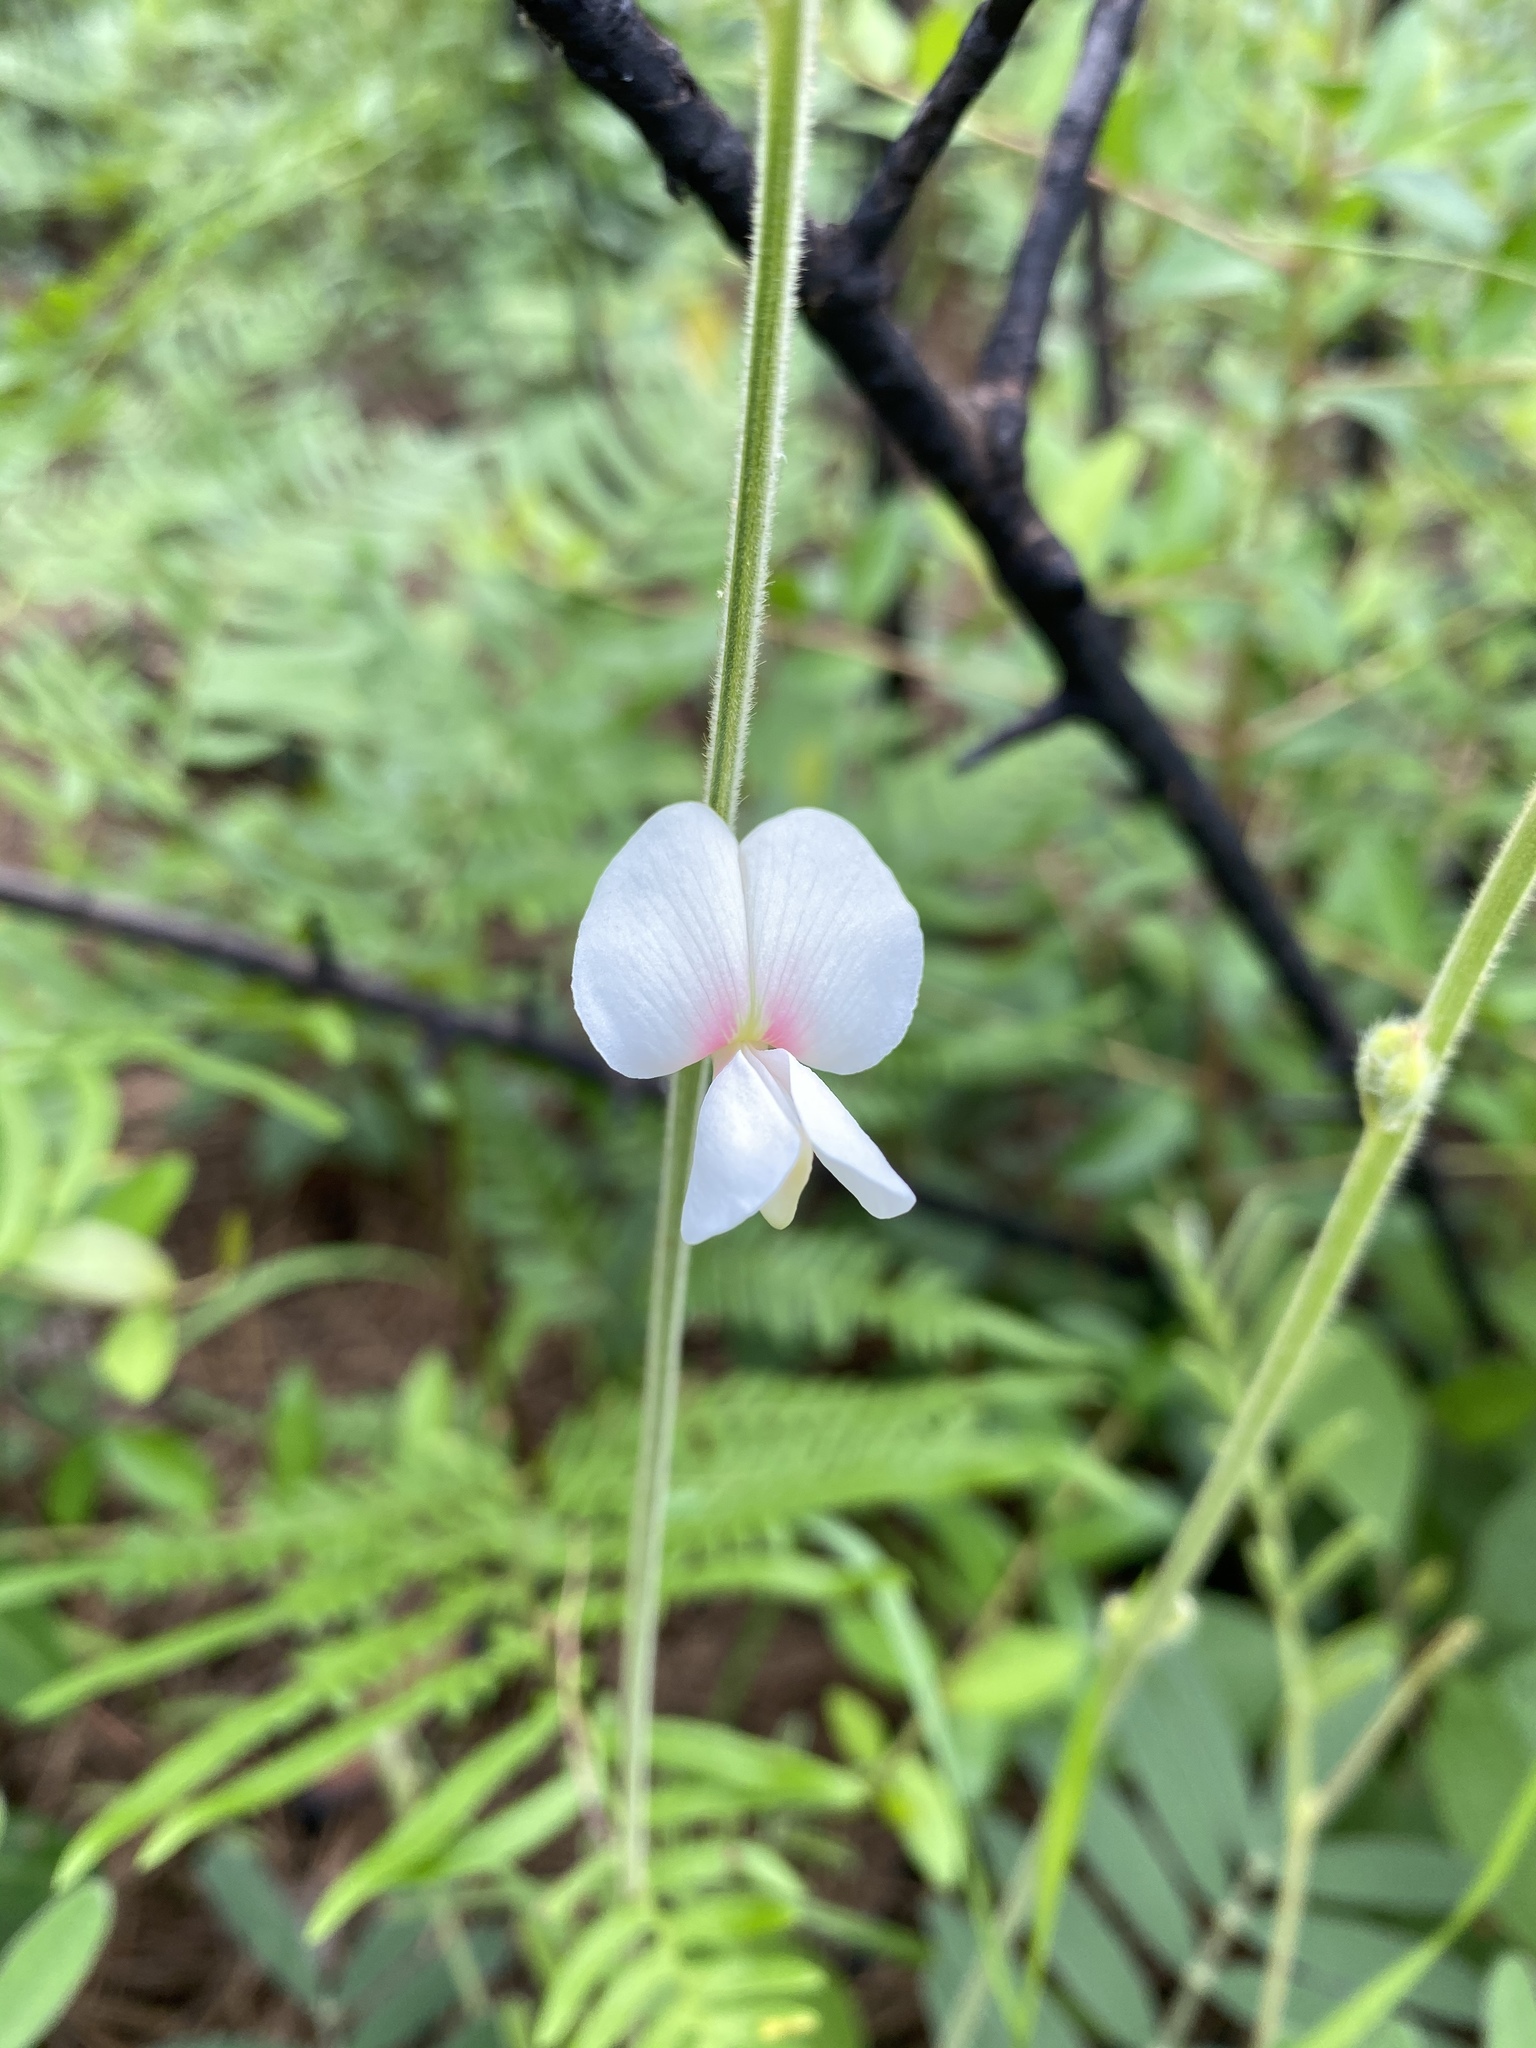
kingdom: Plantae
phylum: Tracheophyta
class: Magnoliopsida
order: Fabales
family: Fabaceae
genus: Tephrosia
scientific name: Tephrosia onobrychoides
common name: Multi-bloom hoary-pea
